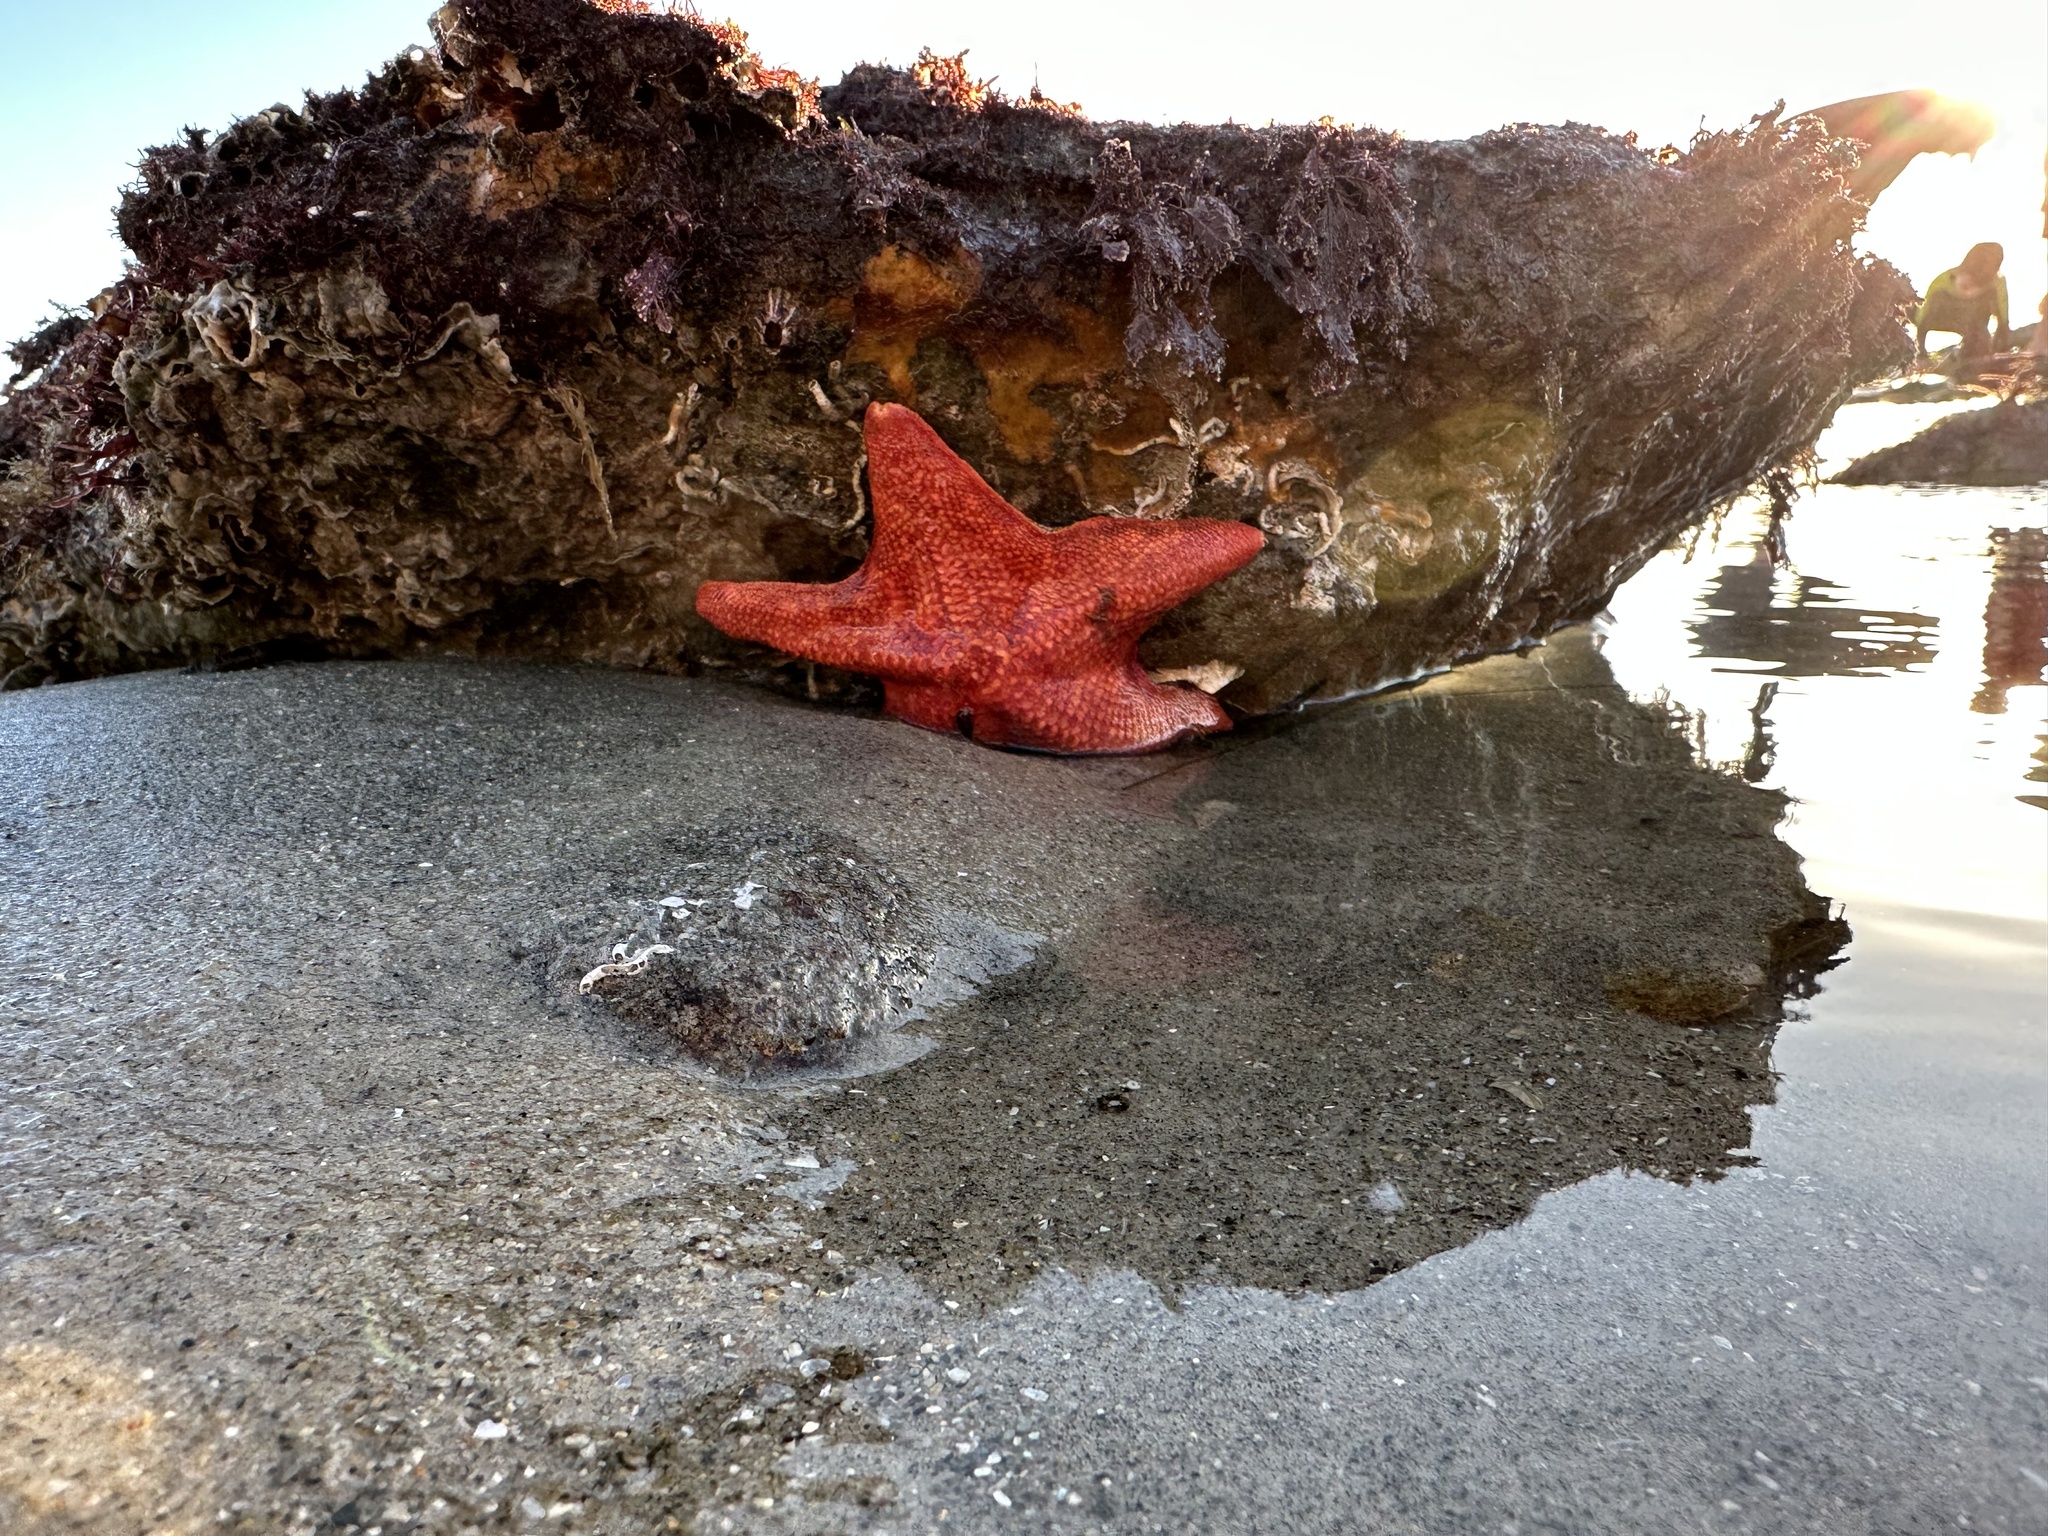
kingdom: Animalia
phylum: Echinodermata
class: Asteroidea
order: Valvatida
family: Asterinidae
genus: Patiria
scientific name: Patiria miniata
